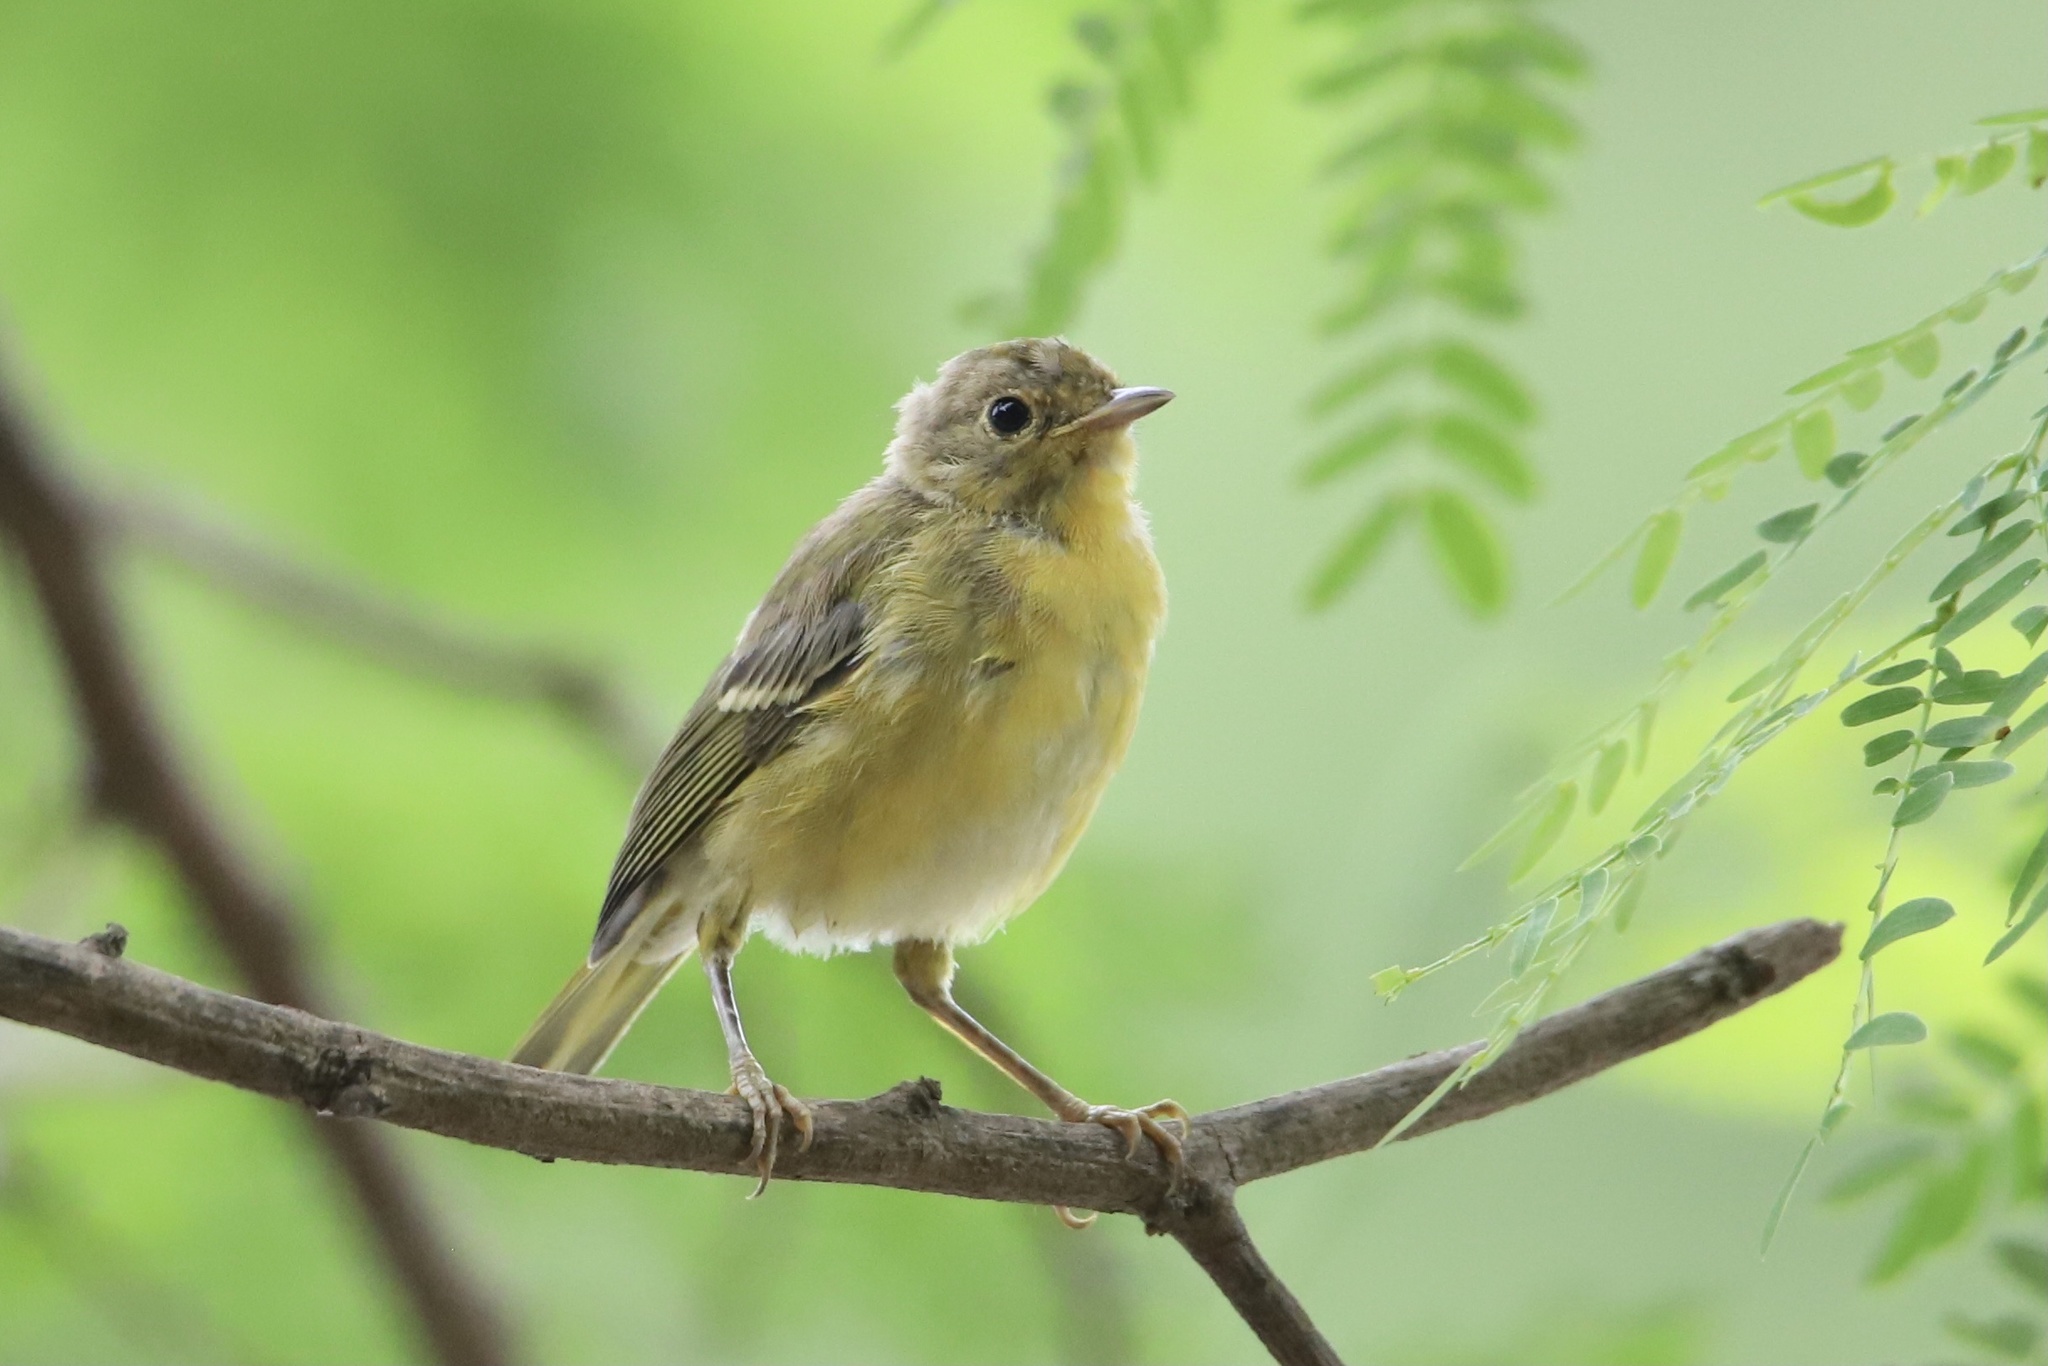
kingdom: Animalia
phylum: Chordata
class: Aves
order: Passeriformes
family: Parulidae
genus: Setophaga
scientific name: Setophaga petechia
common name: Yellow warbler
